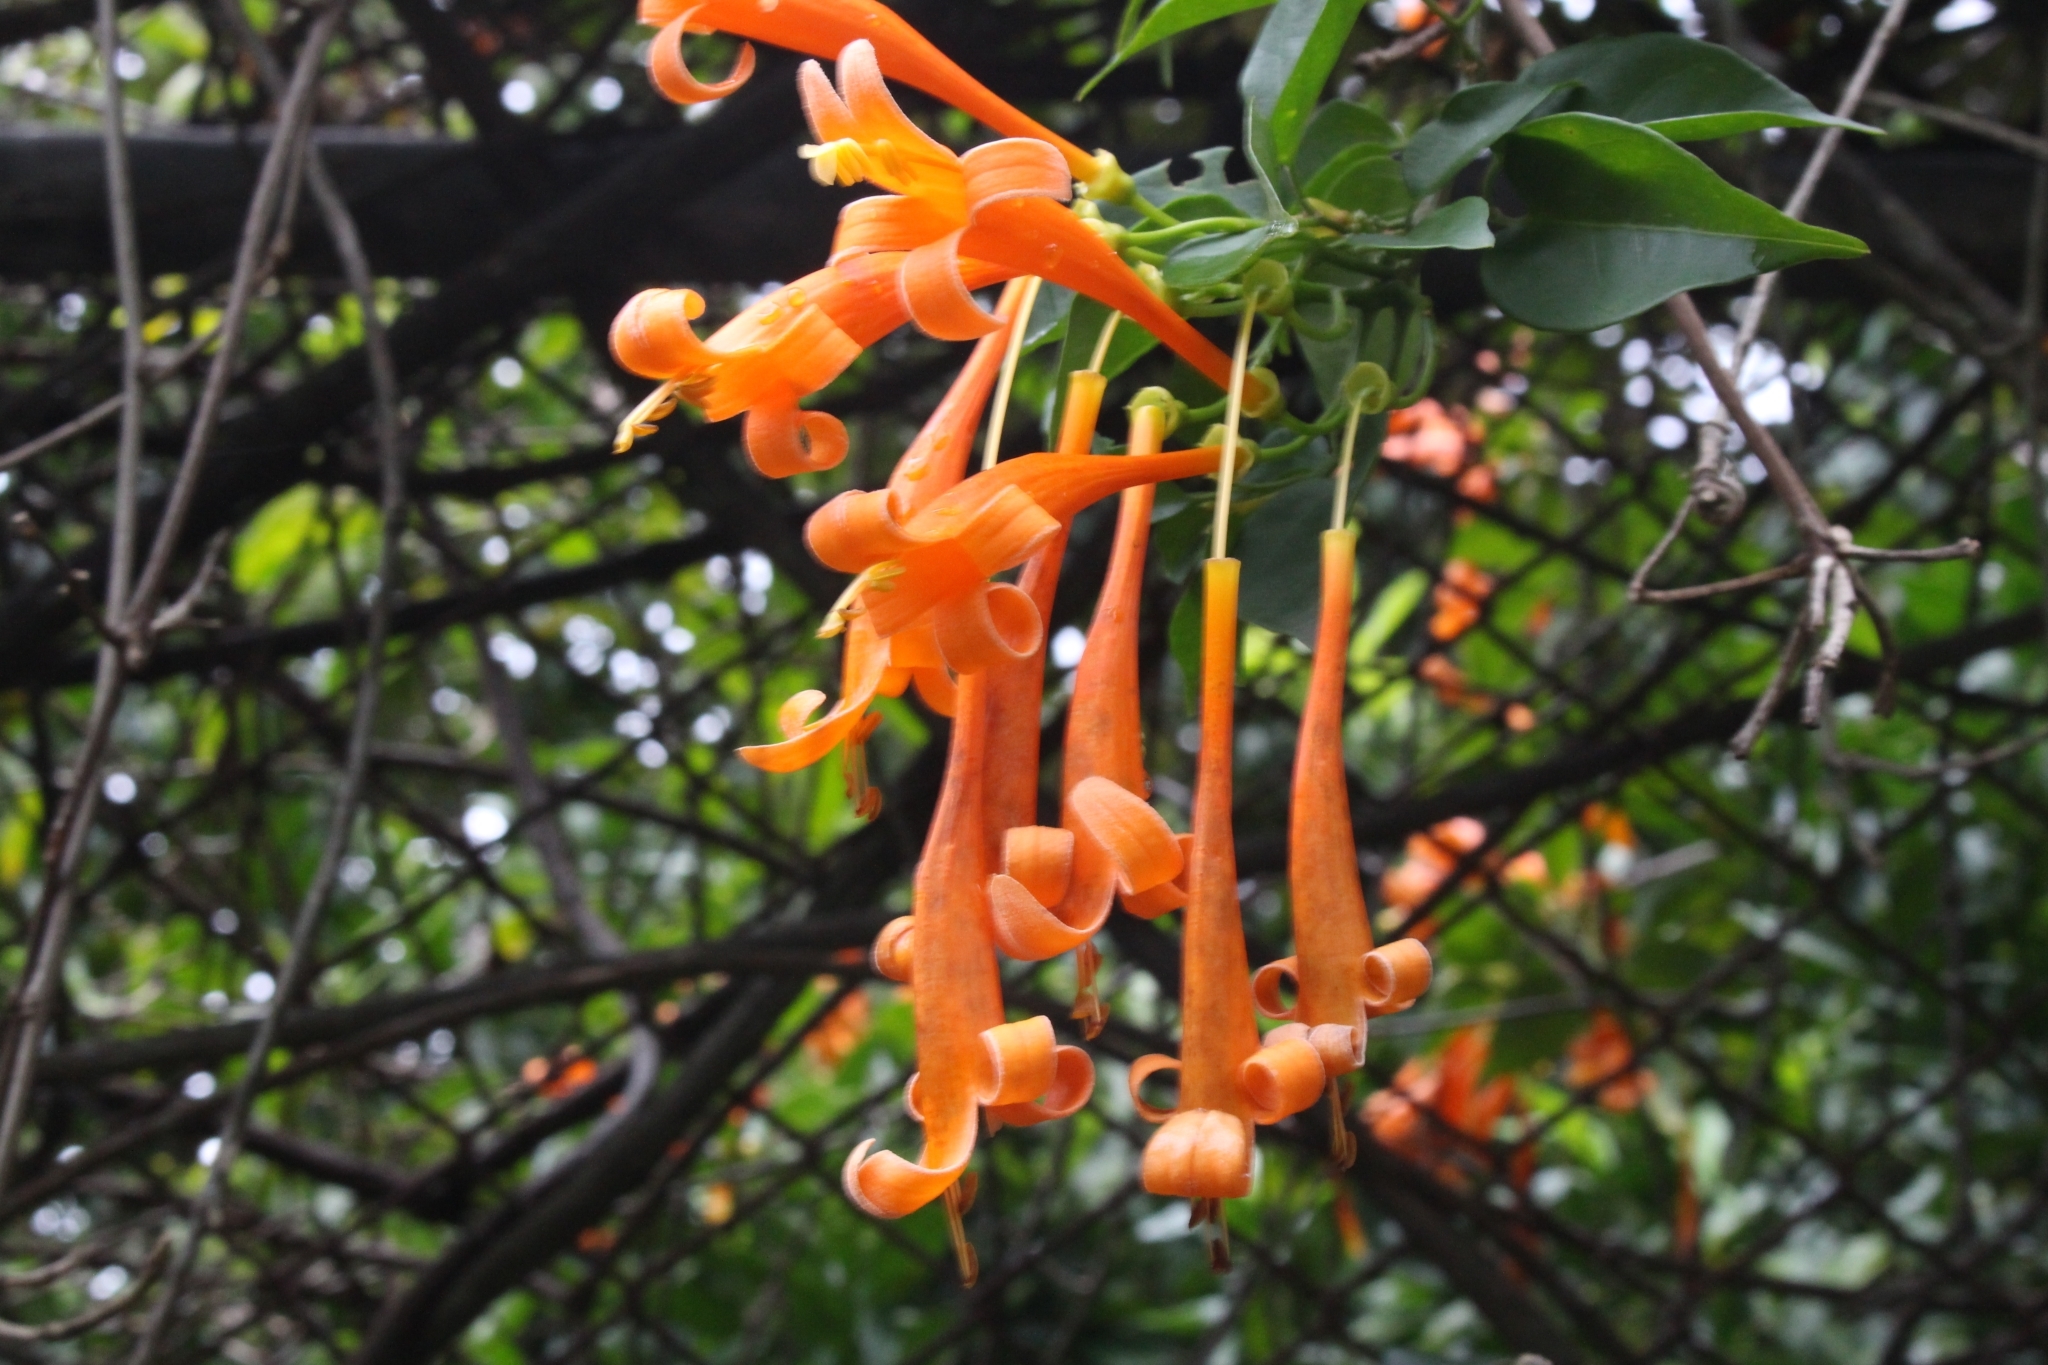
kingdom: Plantae
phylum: Tracheophyta
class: Magnoliopsida
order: Lamiales
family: Bignoniaceae
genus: Pyrostegia
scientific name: Pyrostegia venusta
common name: Flamevine
